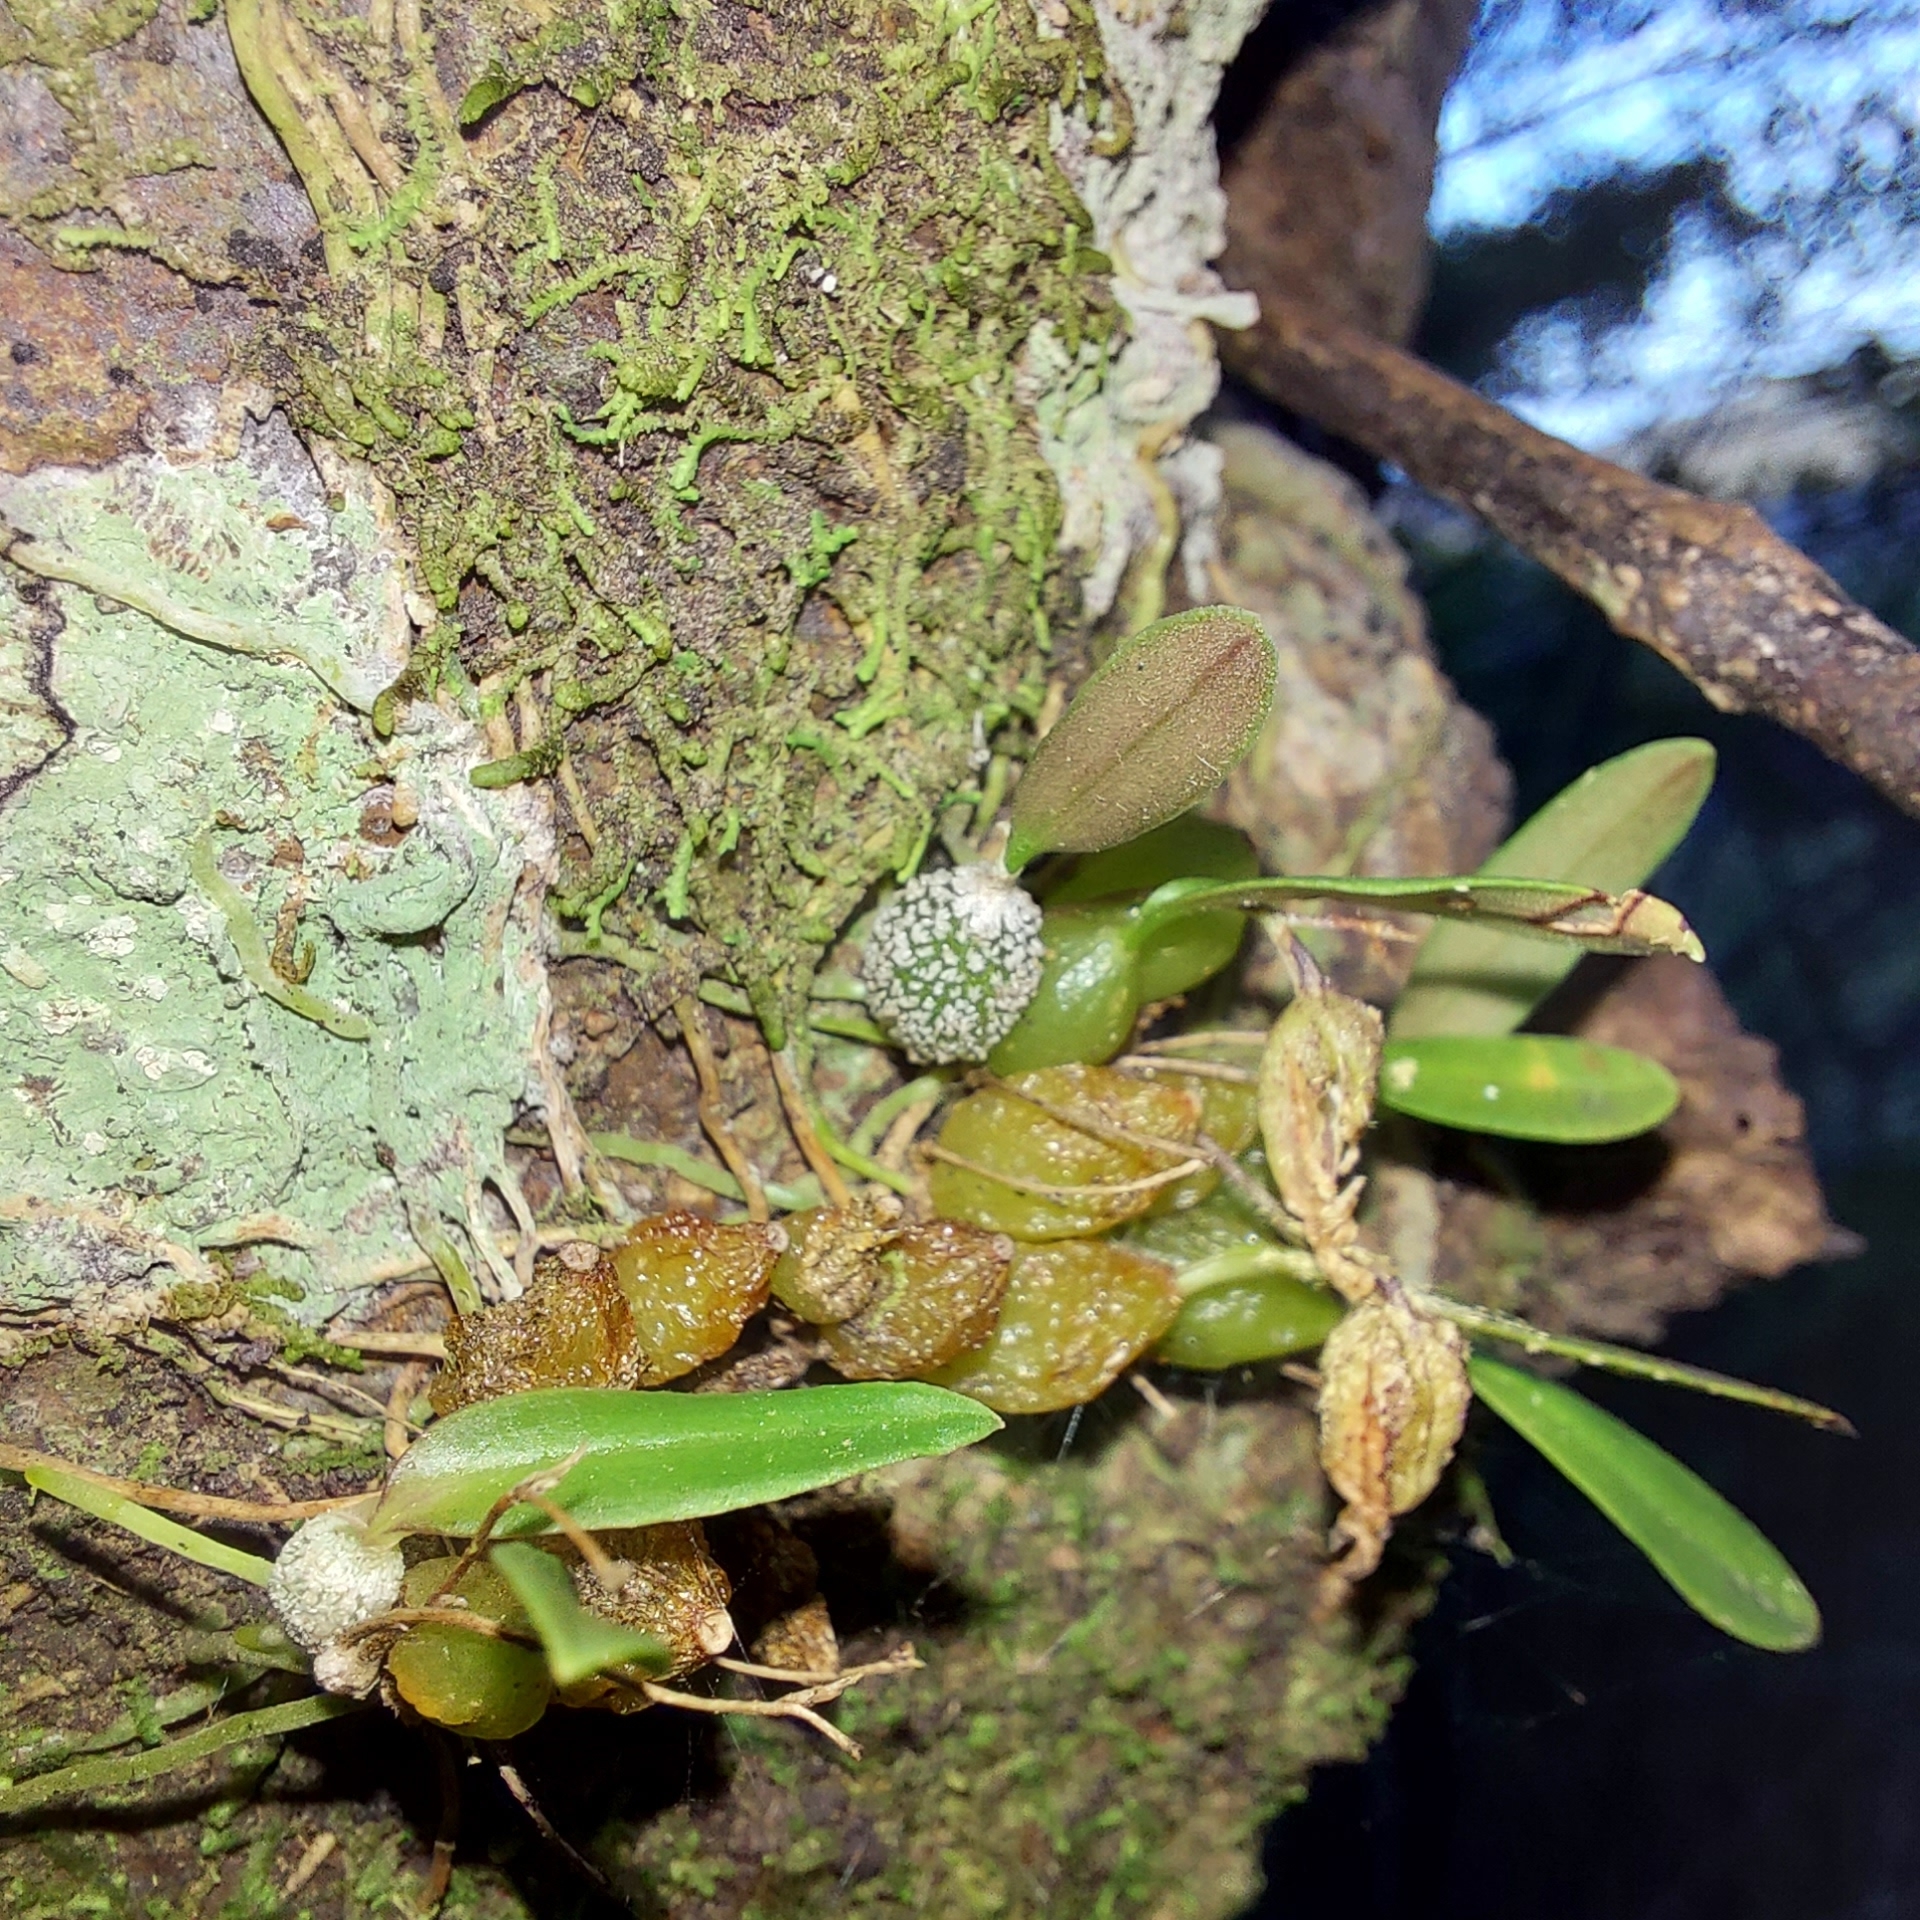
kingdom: Plantae
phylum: Tracheophyta
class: Liliopsida
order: Asparagales
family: Orchidaceae
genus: Bulbophyllum
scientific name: Bulbophyllum tuberculatum
